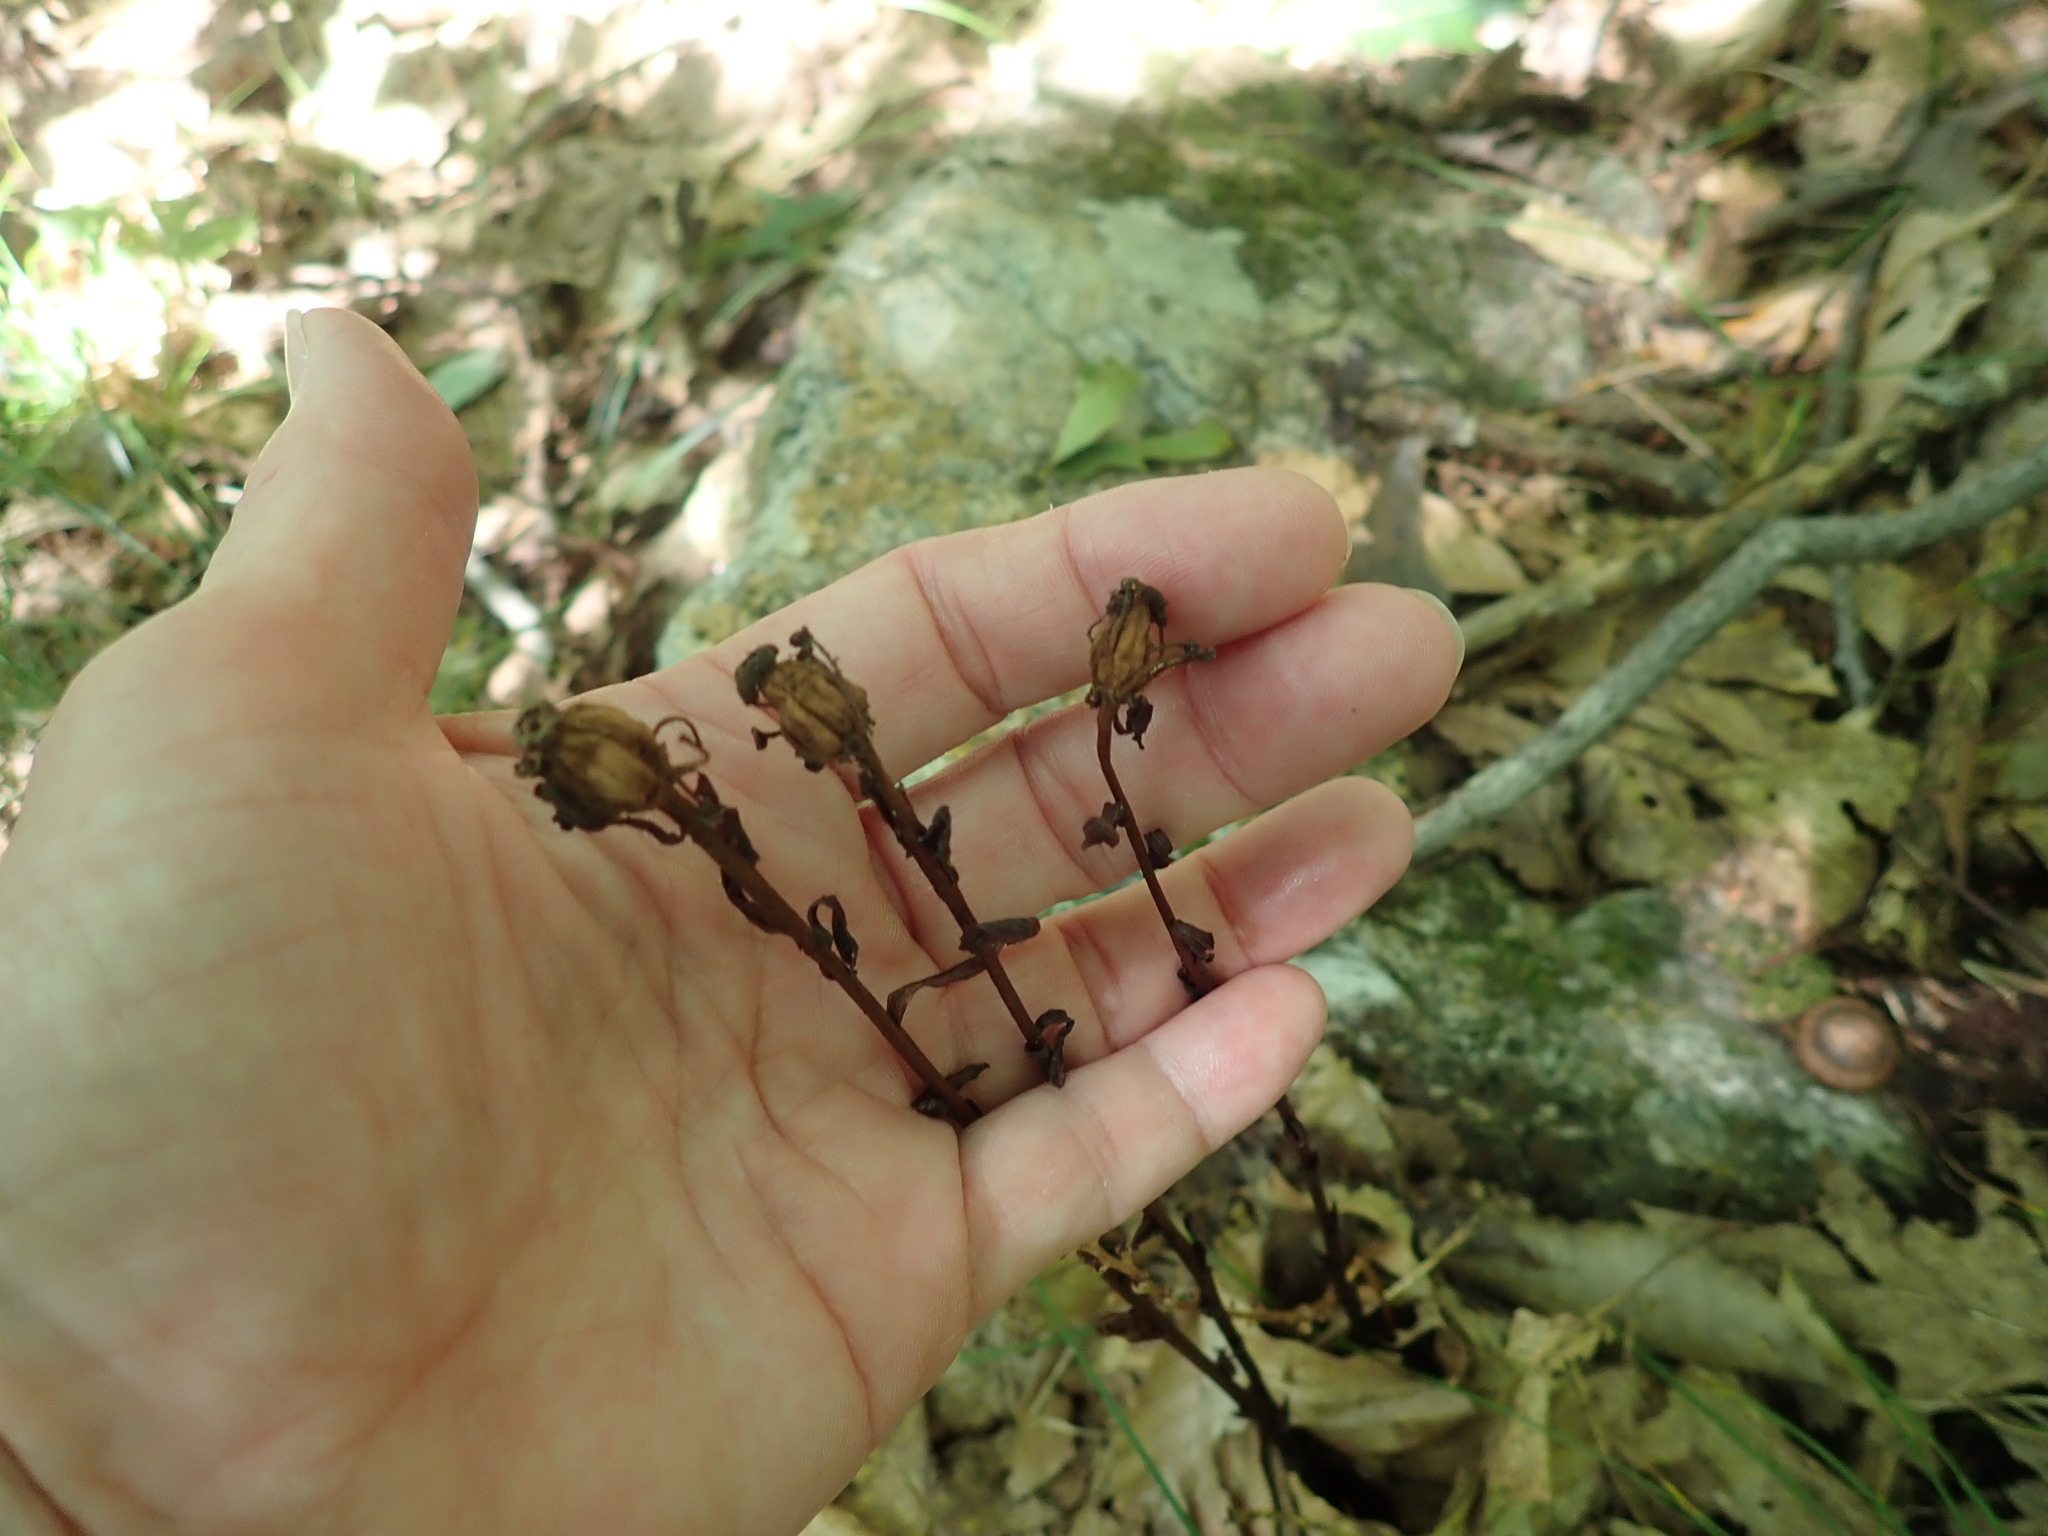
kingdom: Plantae
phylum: Tracheophyta
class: Magnoliopsida
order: Ericales
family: Ericaceae
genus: Monotropa
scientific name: Monotropa uniflora
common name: Convulsion root
